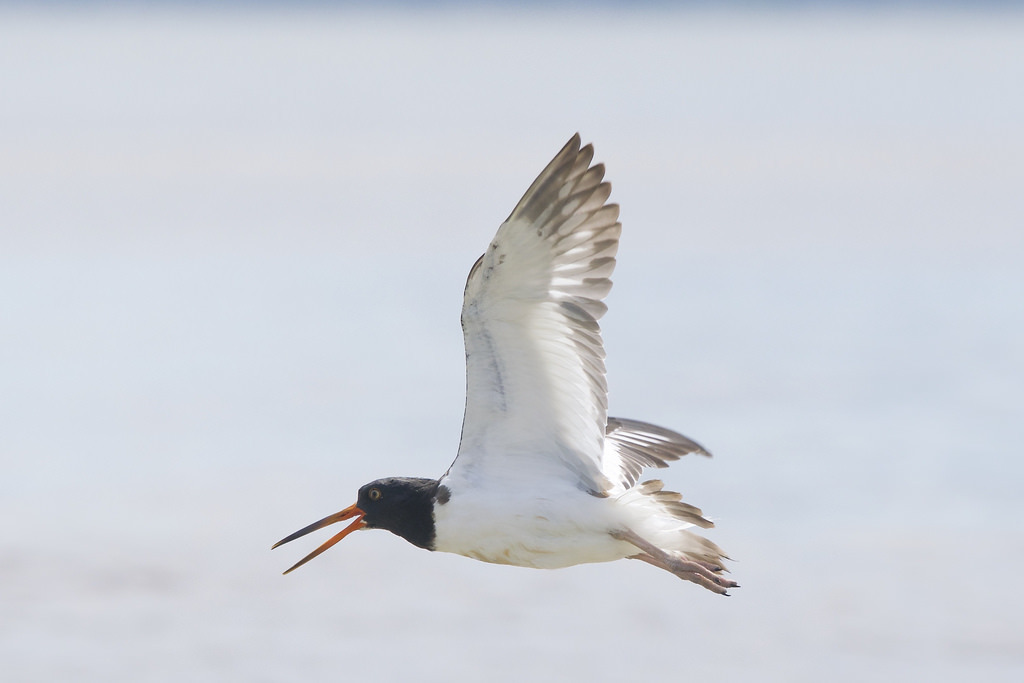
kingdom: Animalia
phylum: Chordata
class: Aves
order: Charadriiformes
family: Haematopodidae
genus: Haematopus
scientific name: Haematopus palliatus
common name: American oystercatcher
